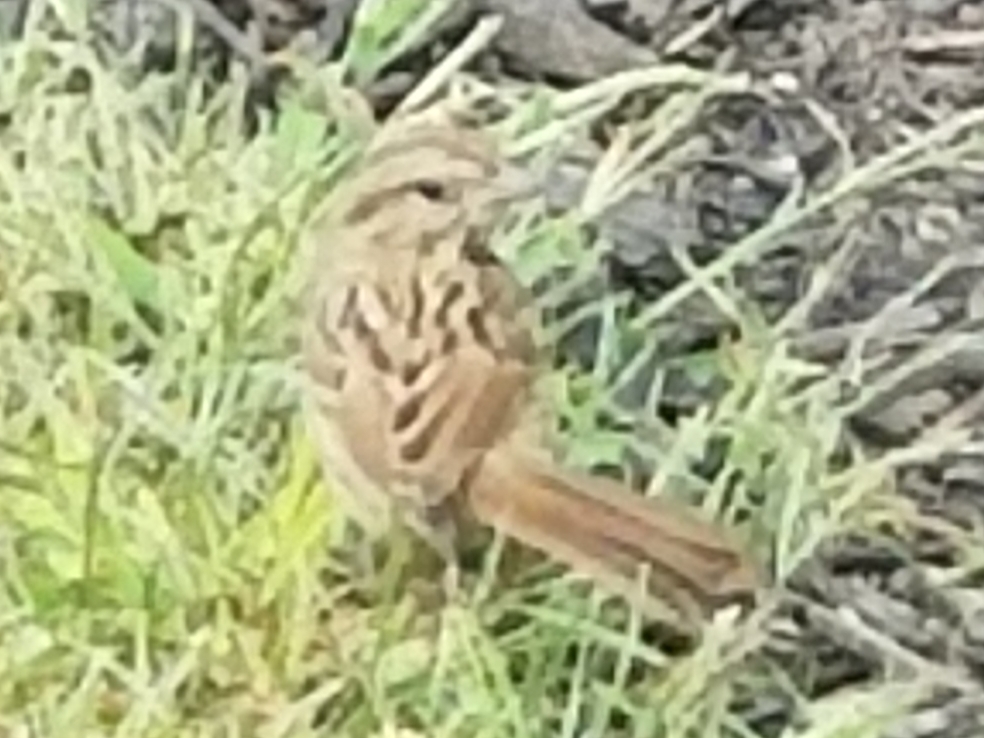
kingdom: Animalia
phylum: Chordata
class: Aves
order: Passeriformes
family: Passerellidae
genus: Melospiza
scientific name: Melospiza melodia
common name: Song sparrow
